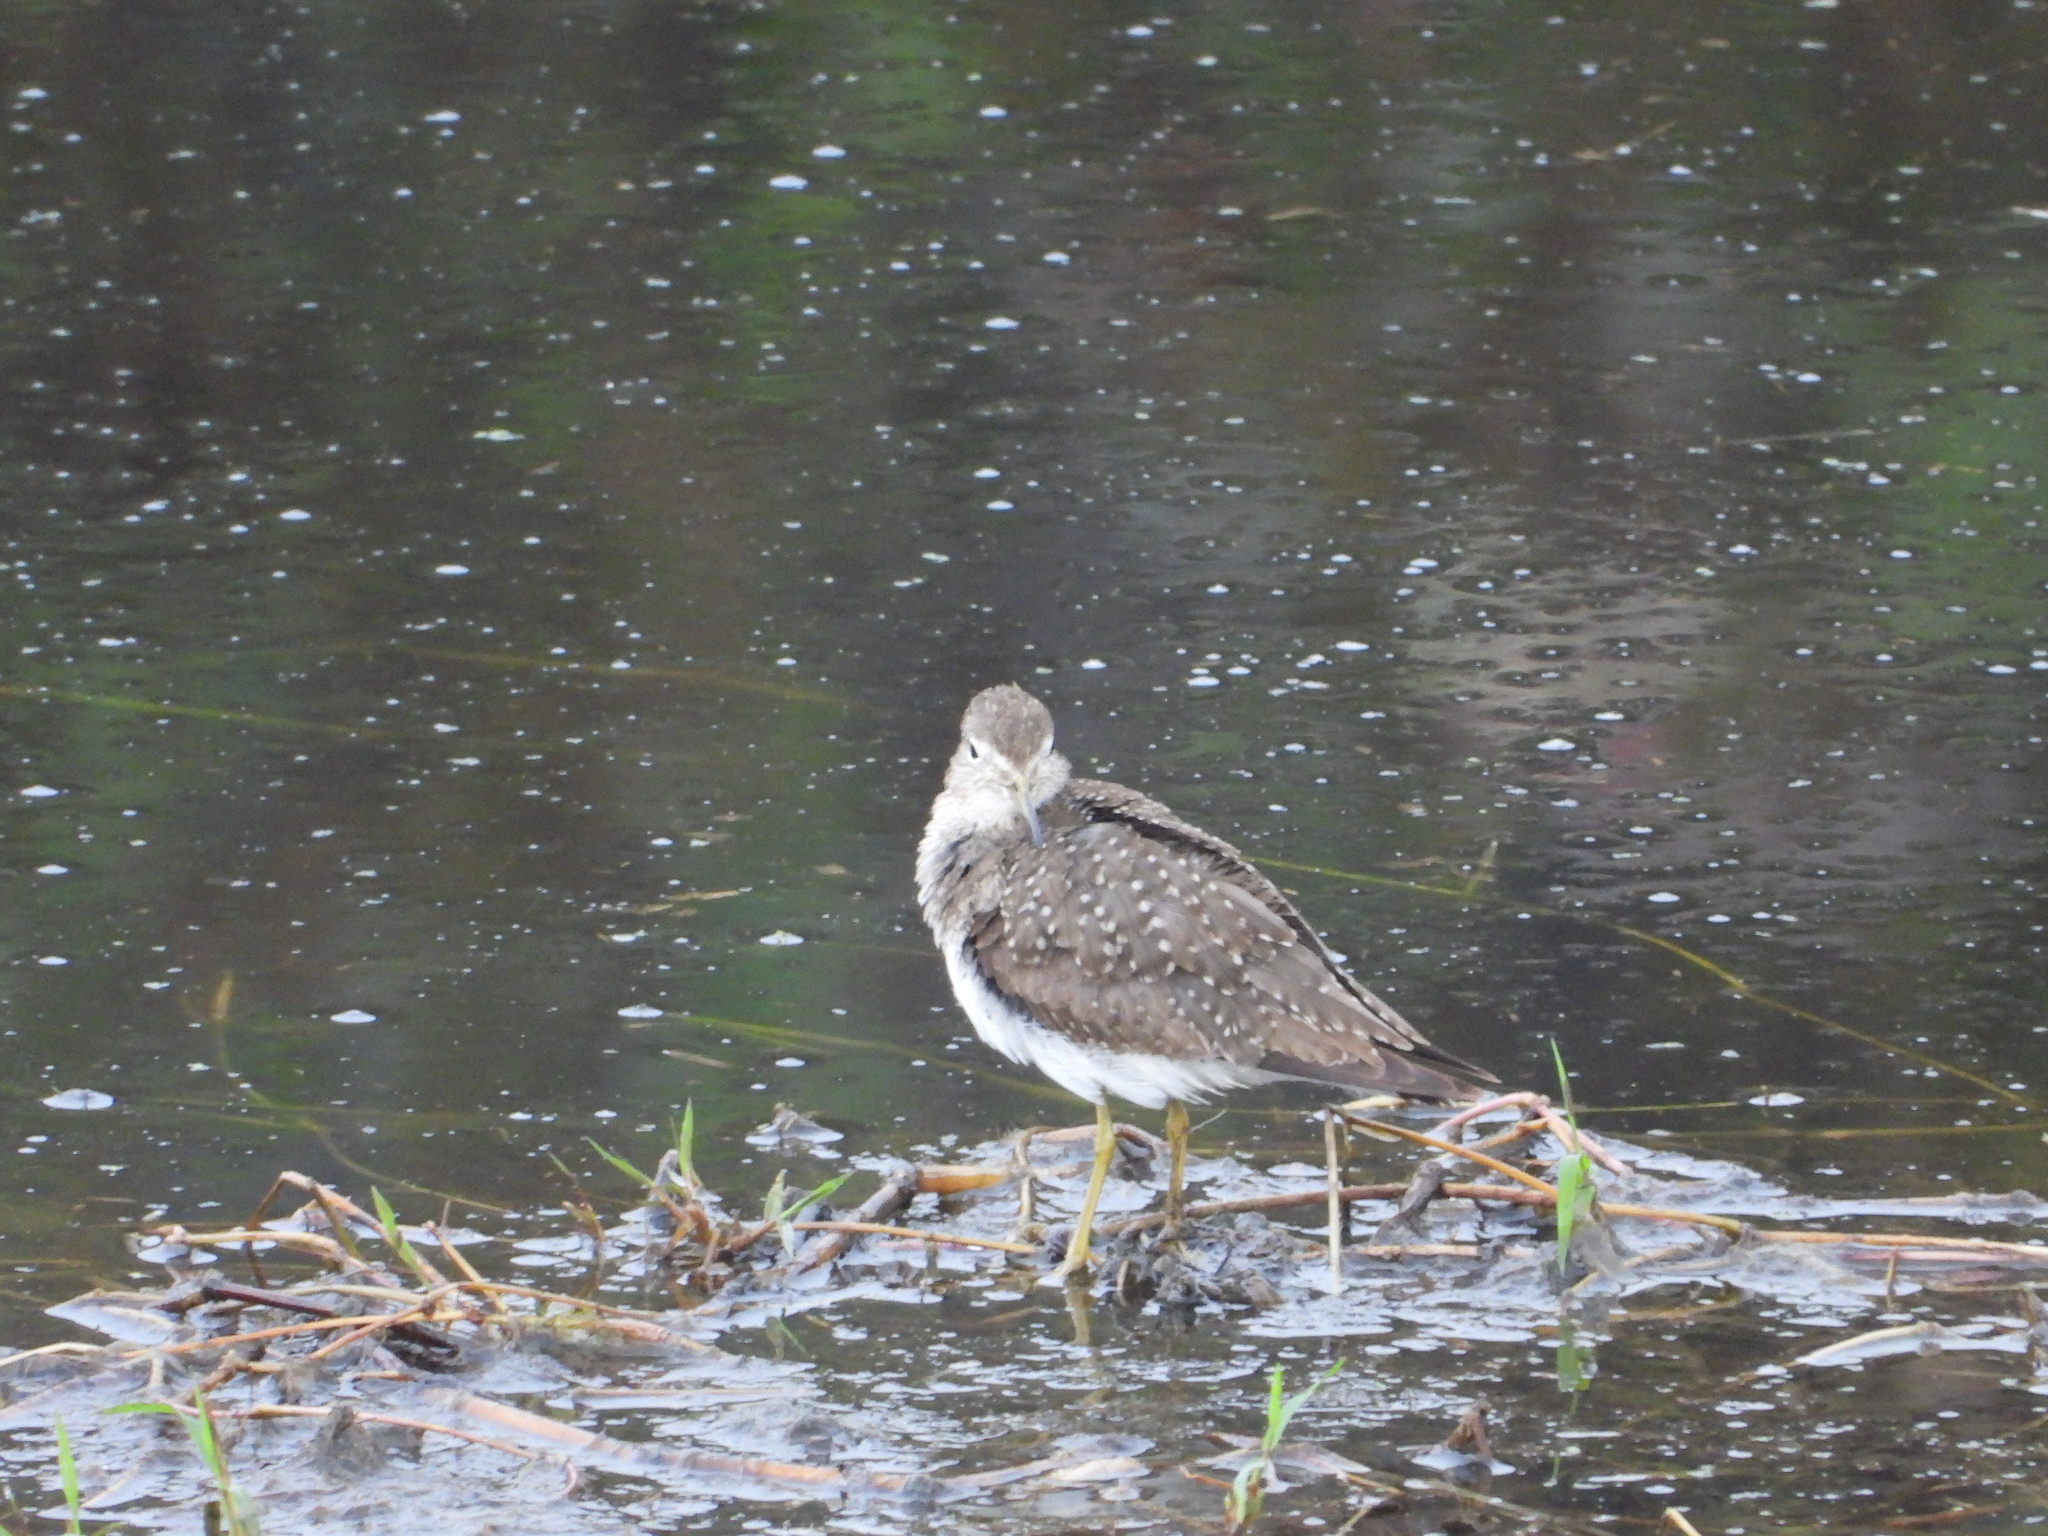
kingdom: Animalia
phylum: Chordata
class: Aves
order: Charadriiformes
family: Scolopacidae
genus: Tringa
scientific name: Tringa solitaria
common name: Solitary sandpiper
